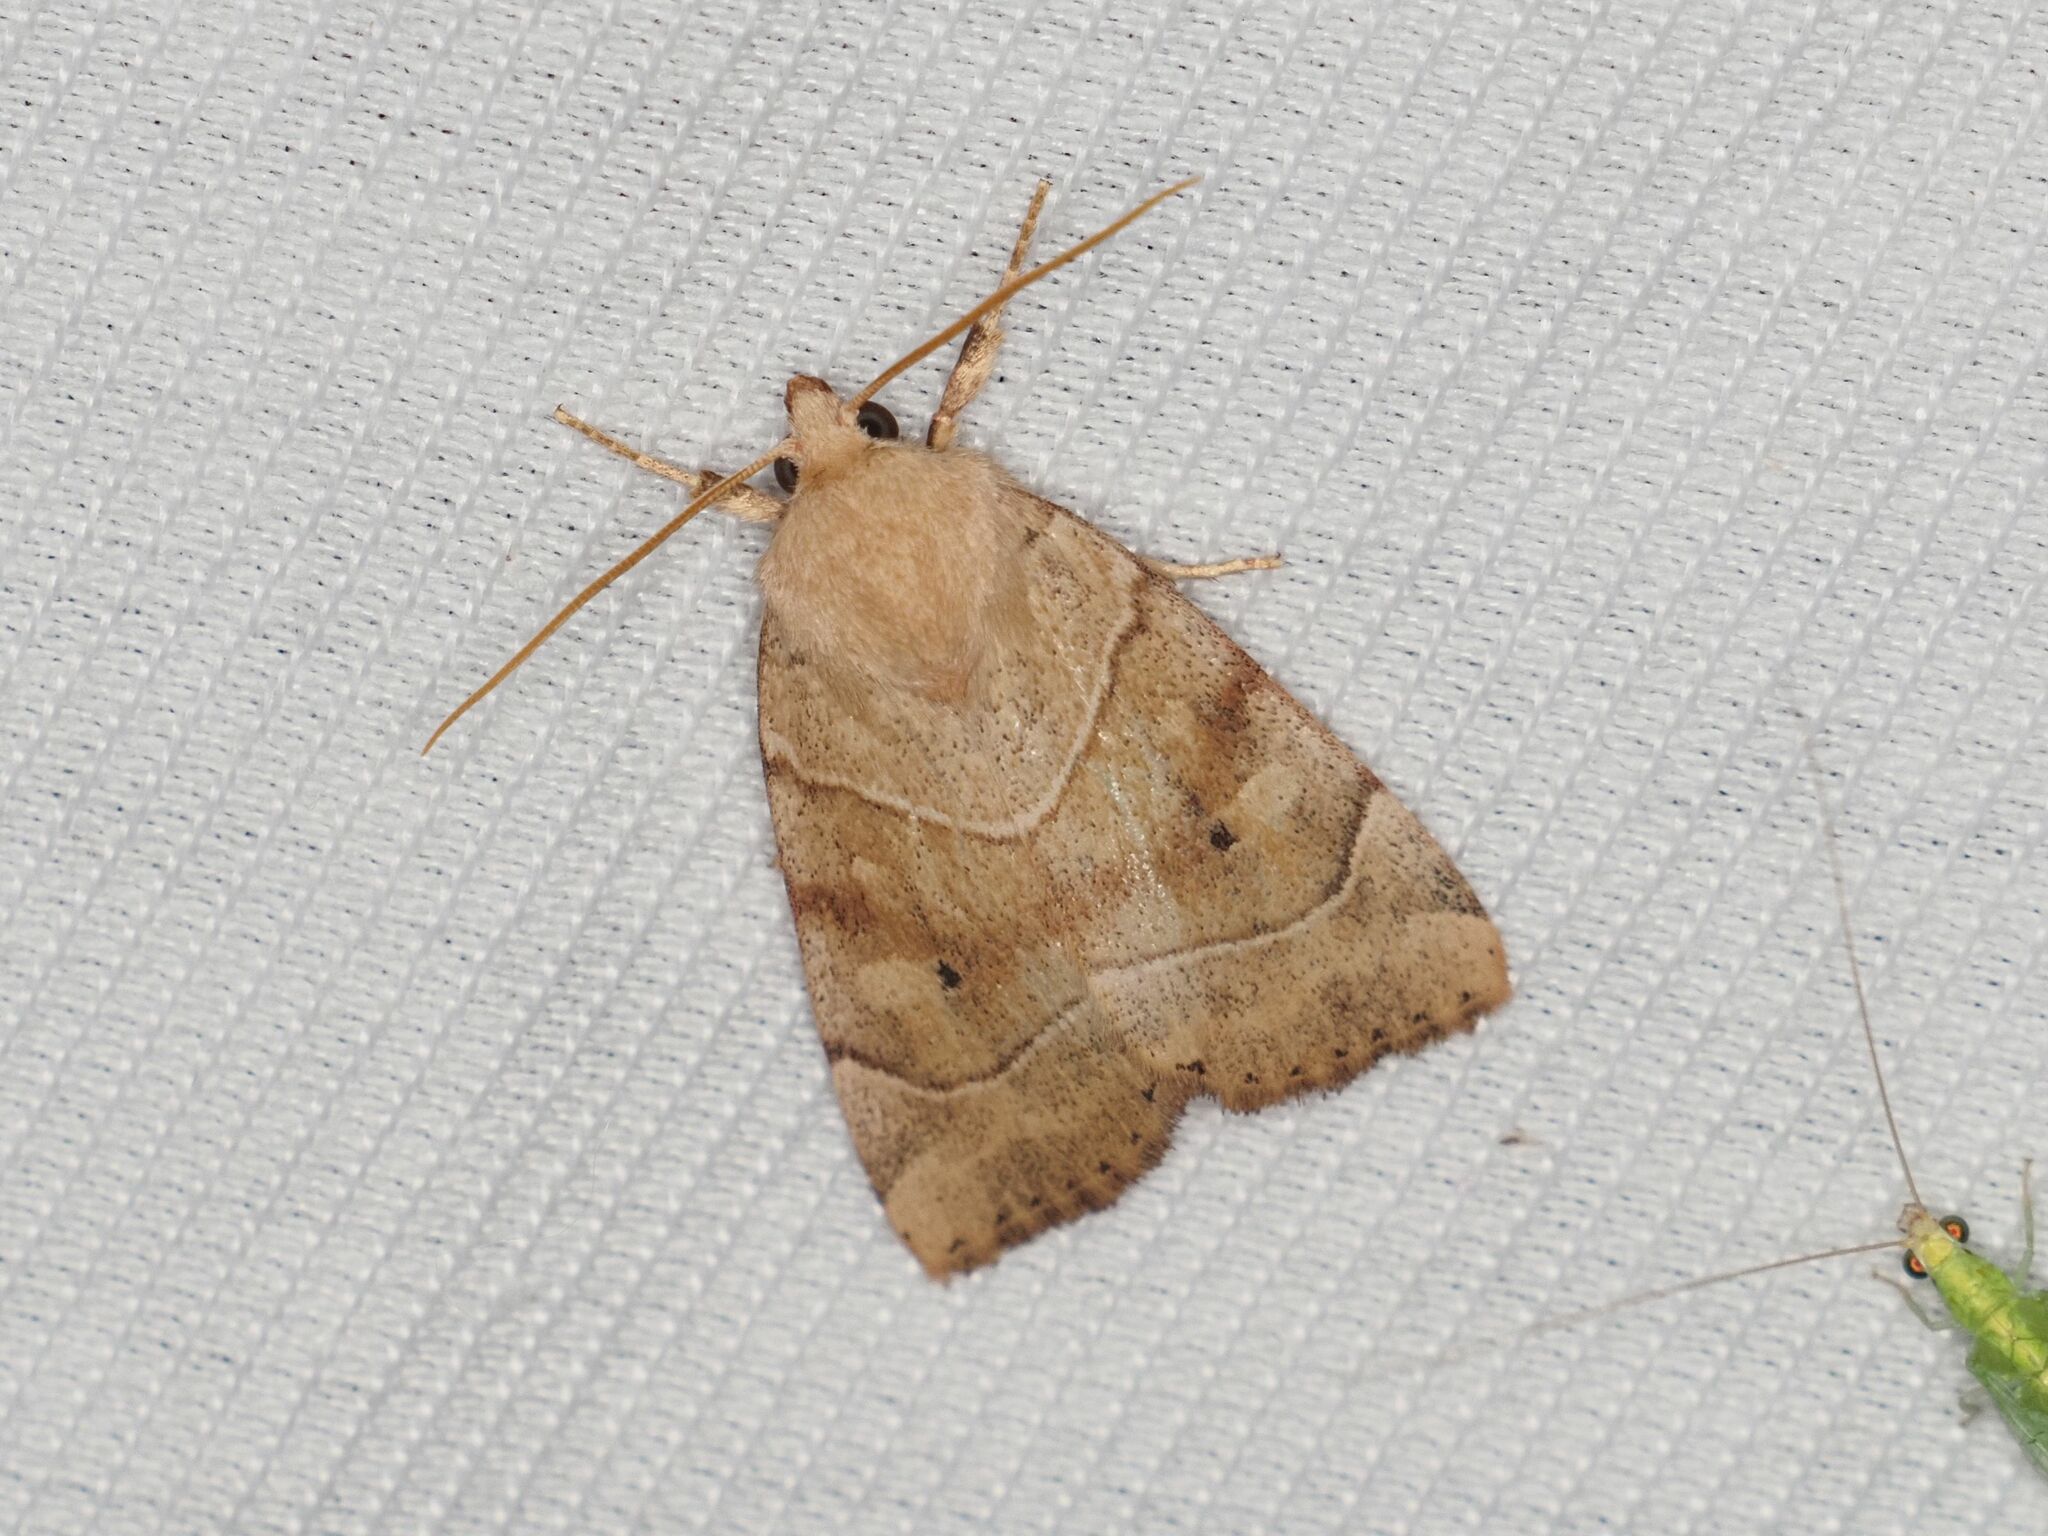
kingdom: Animalia
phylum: Arthropoda
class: Insecta
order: Lepidoptera
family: Noctuidae
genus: Cosmia
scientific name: Cosmia trapezina
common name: Dun-bar
